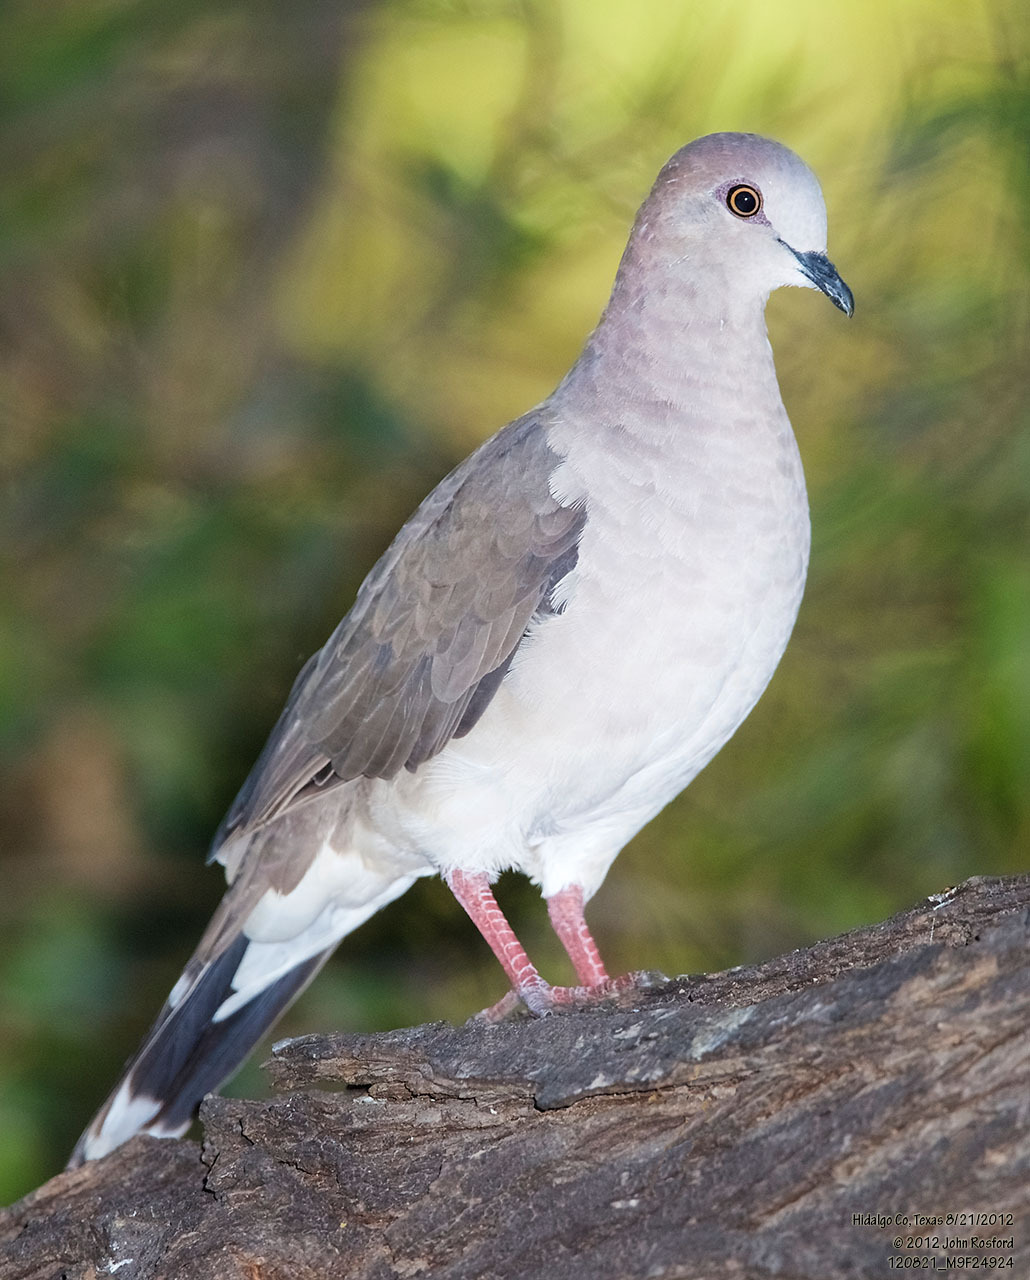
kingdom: Animalia
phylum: Chordata
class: Aves
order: Columbiformes
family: Columbidae
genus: Leptotila
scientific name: Leptotila verreauxi
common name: White-tipped dove
